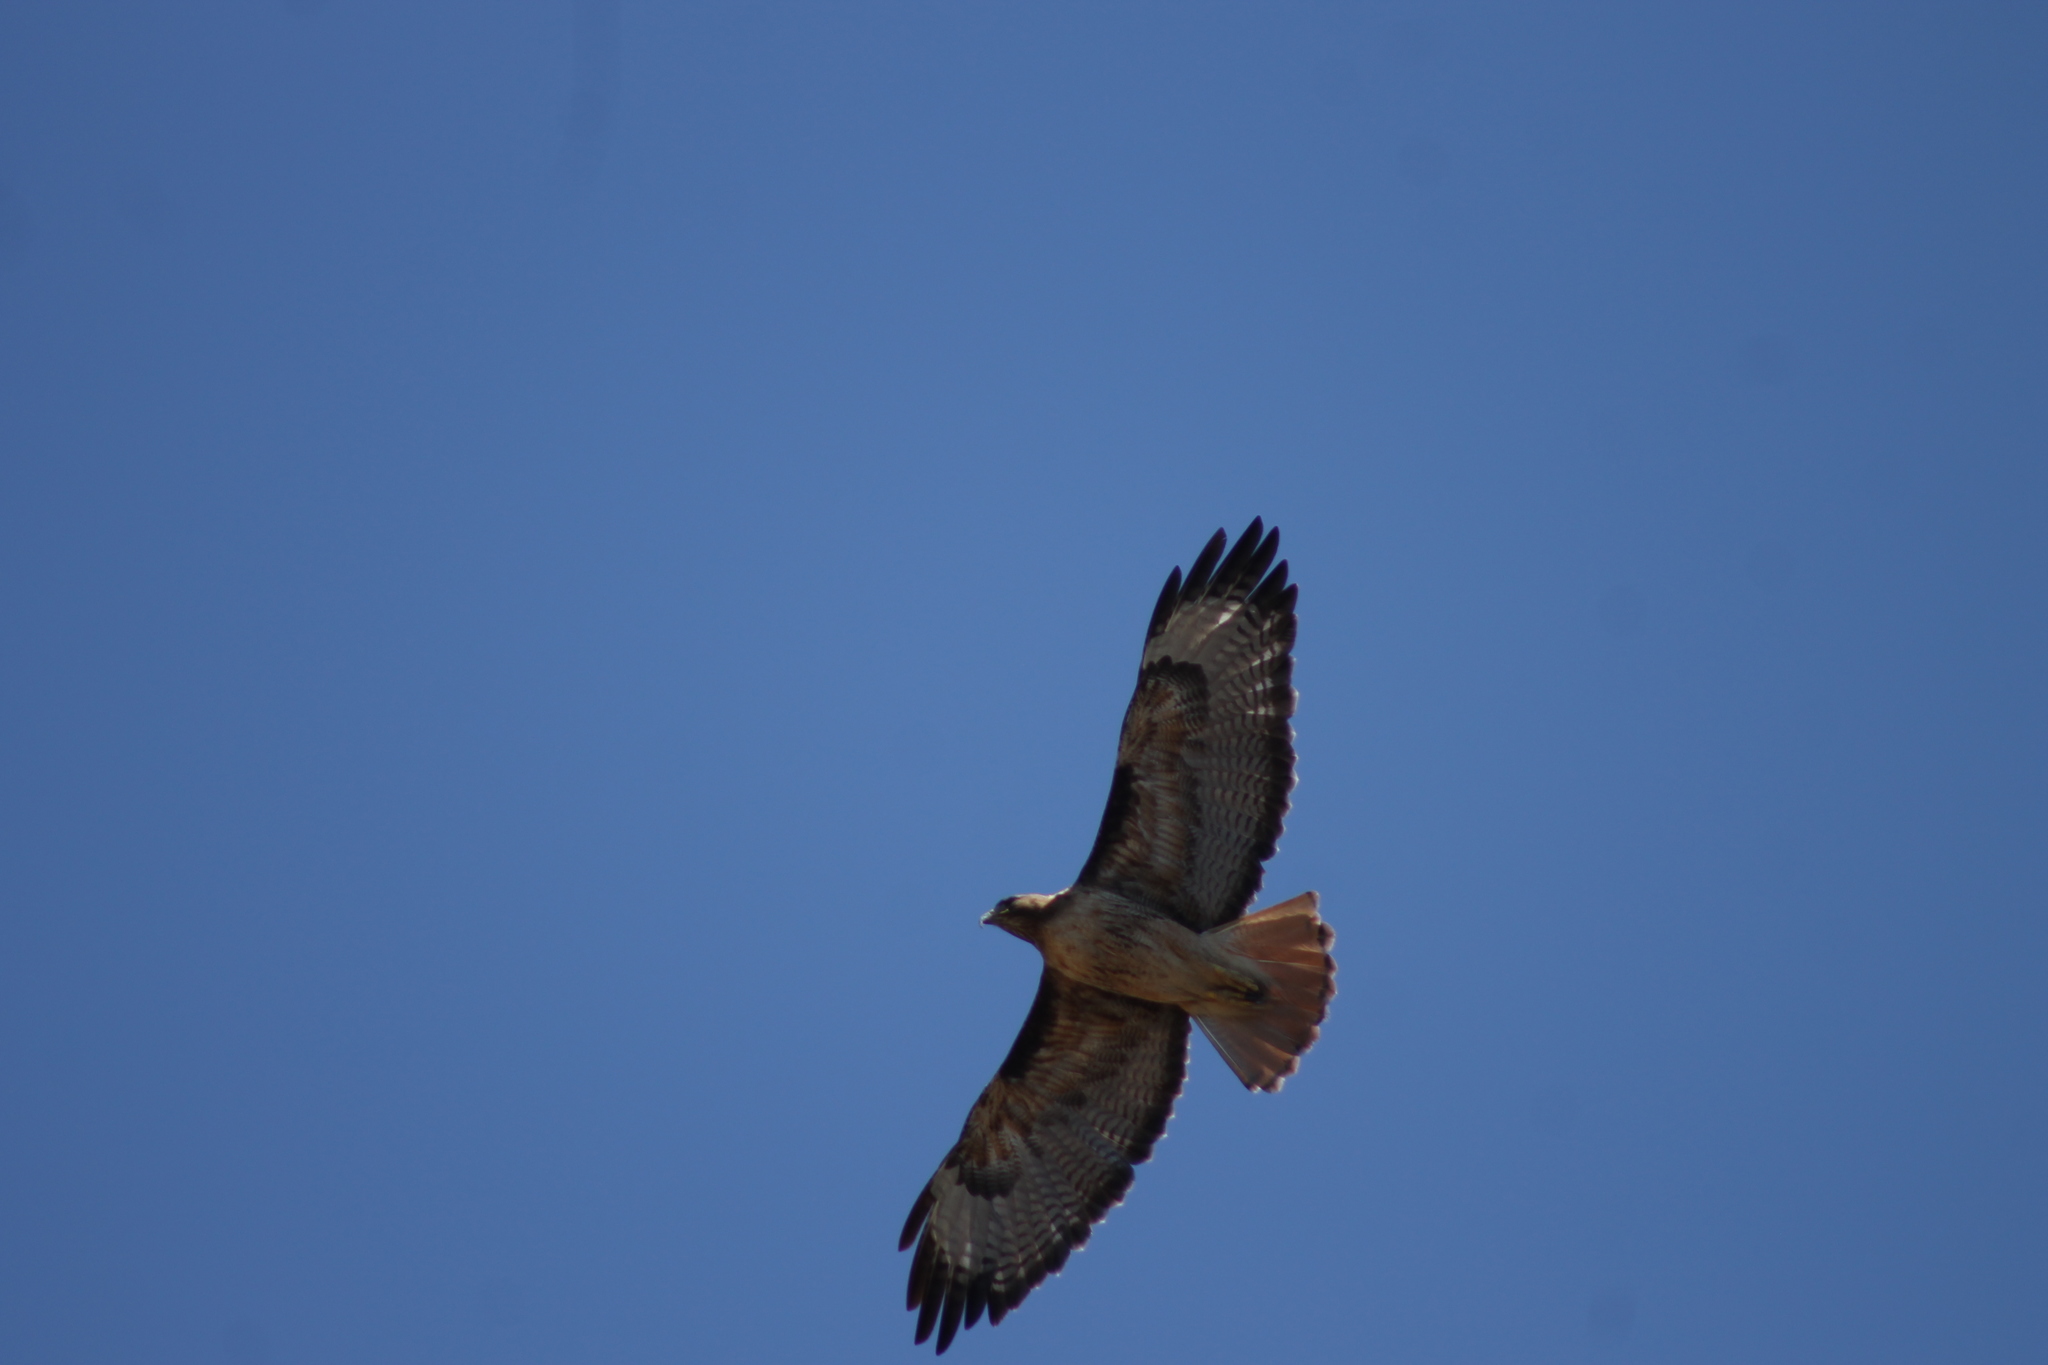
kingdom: Animalia
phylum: Chordata
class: Aves
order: Accipitriformes
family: Accipitridae
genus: Buteo
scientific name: Buteo jamaicensis
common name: Red-tailed hawk
